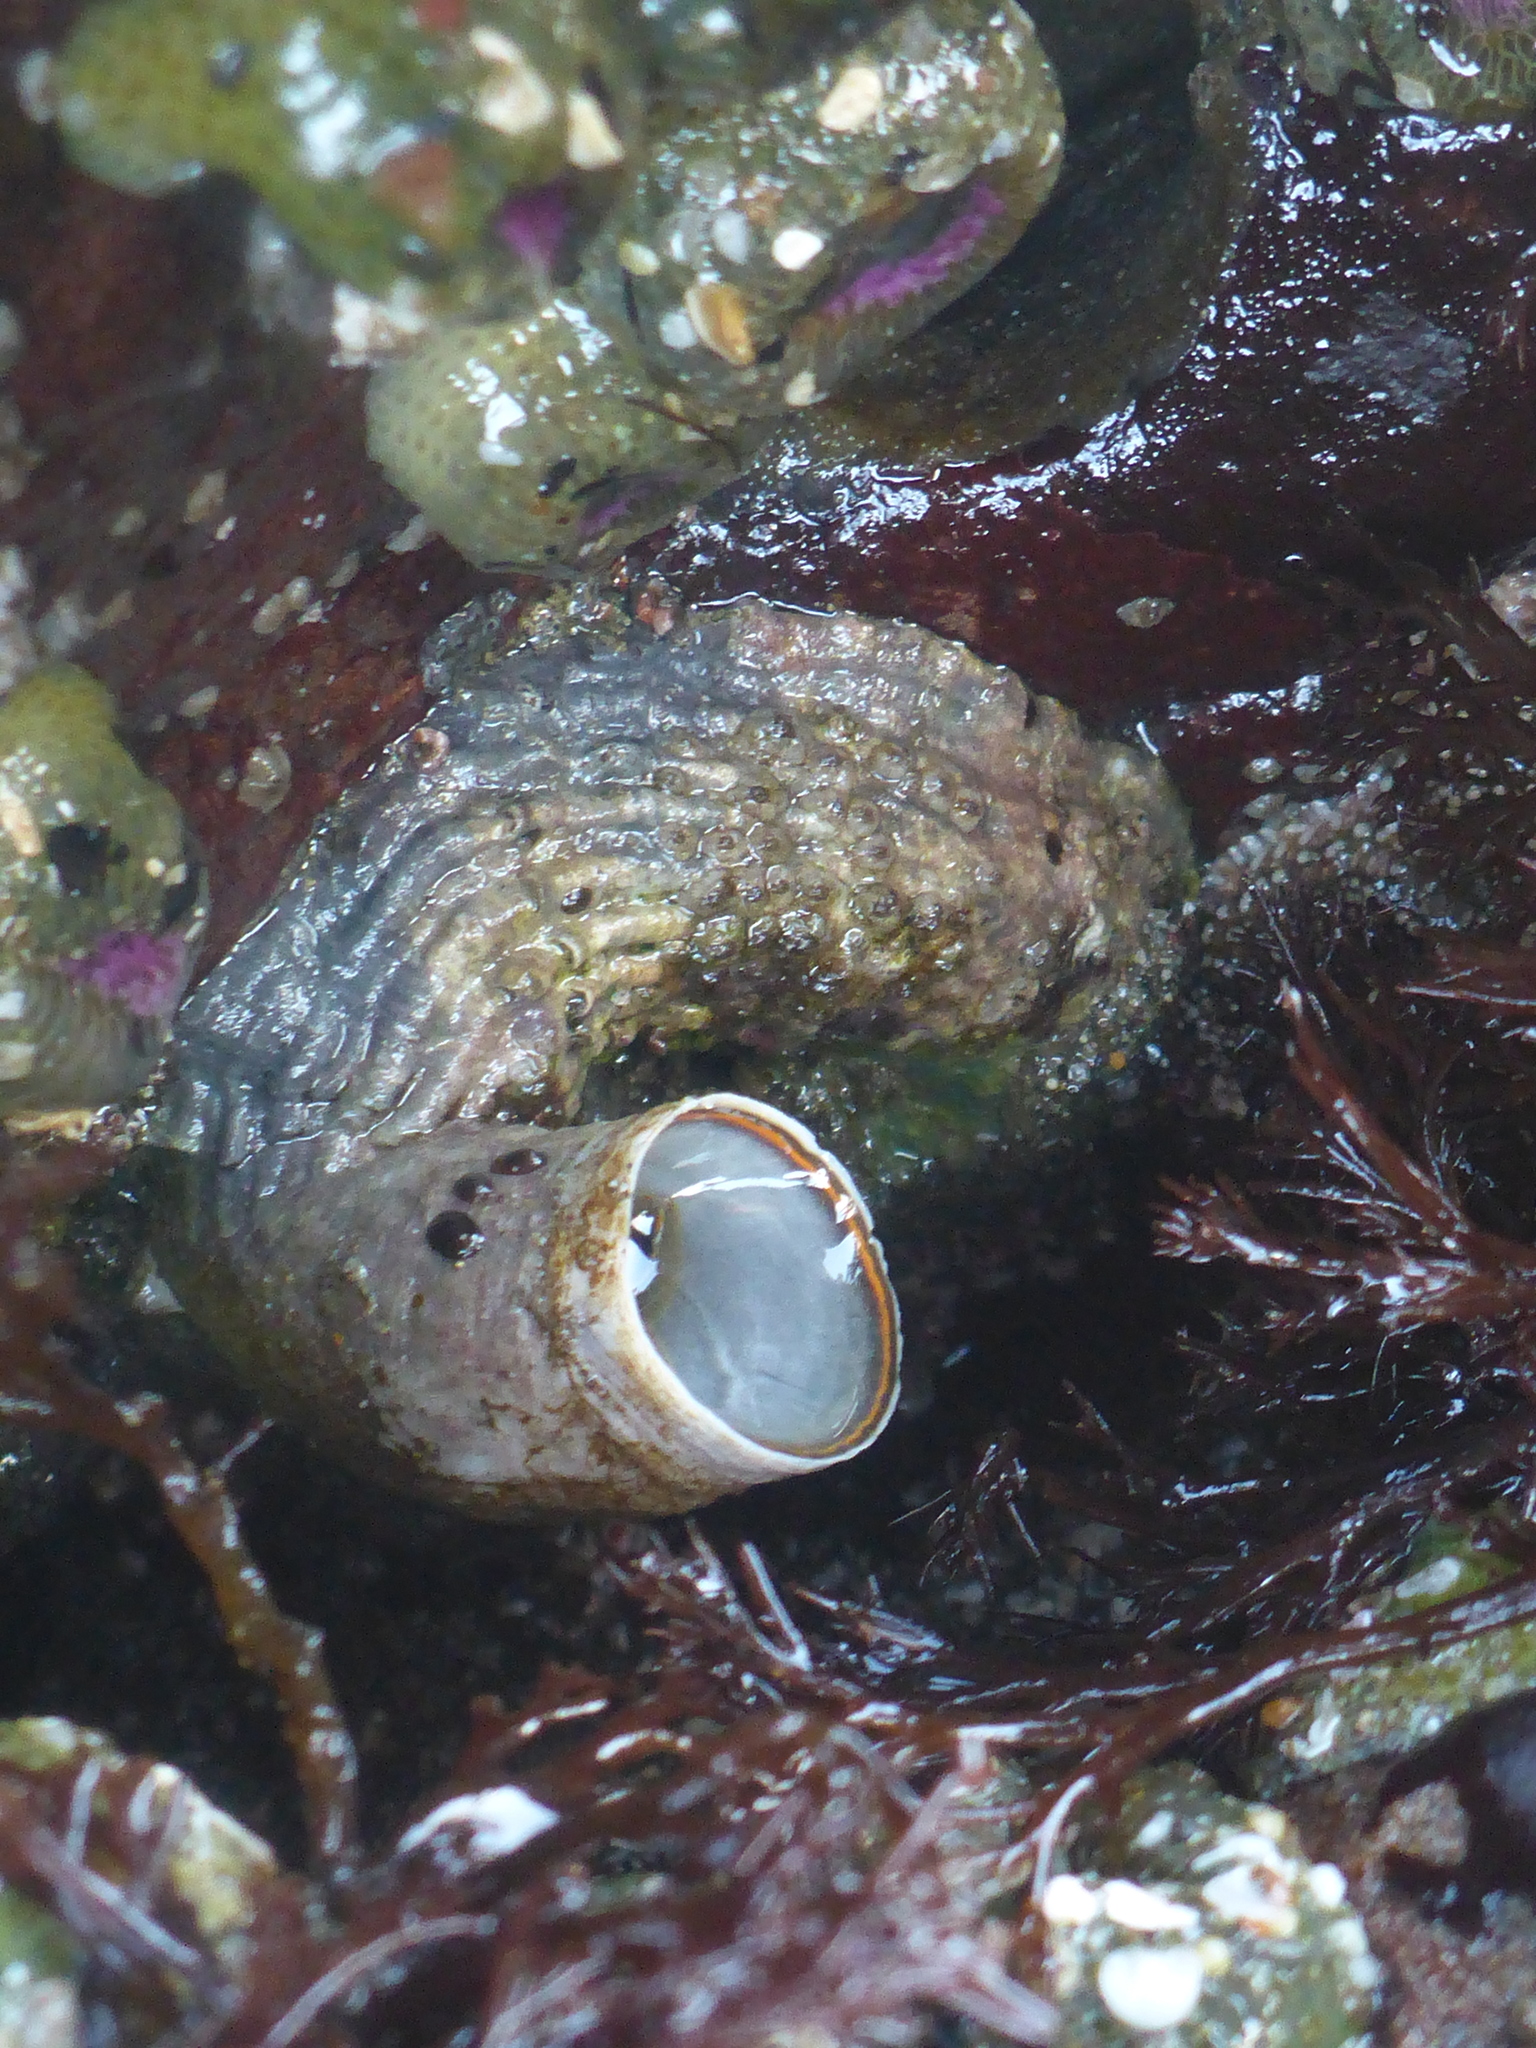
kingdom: Animalia
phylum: Mollusca
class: Gastropoda
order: Littorinimorpha
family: Vermetidae
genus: Thylacodes
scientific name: Thylacodes squamigerus
